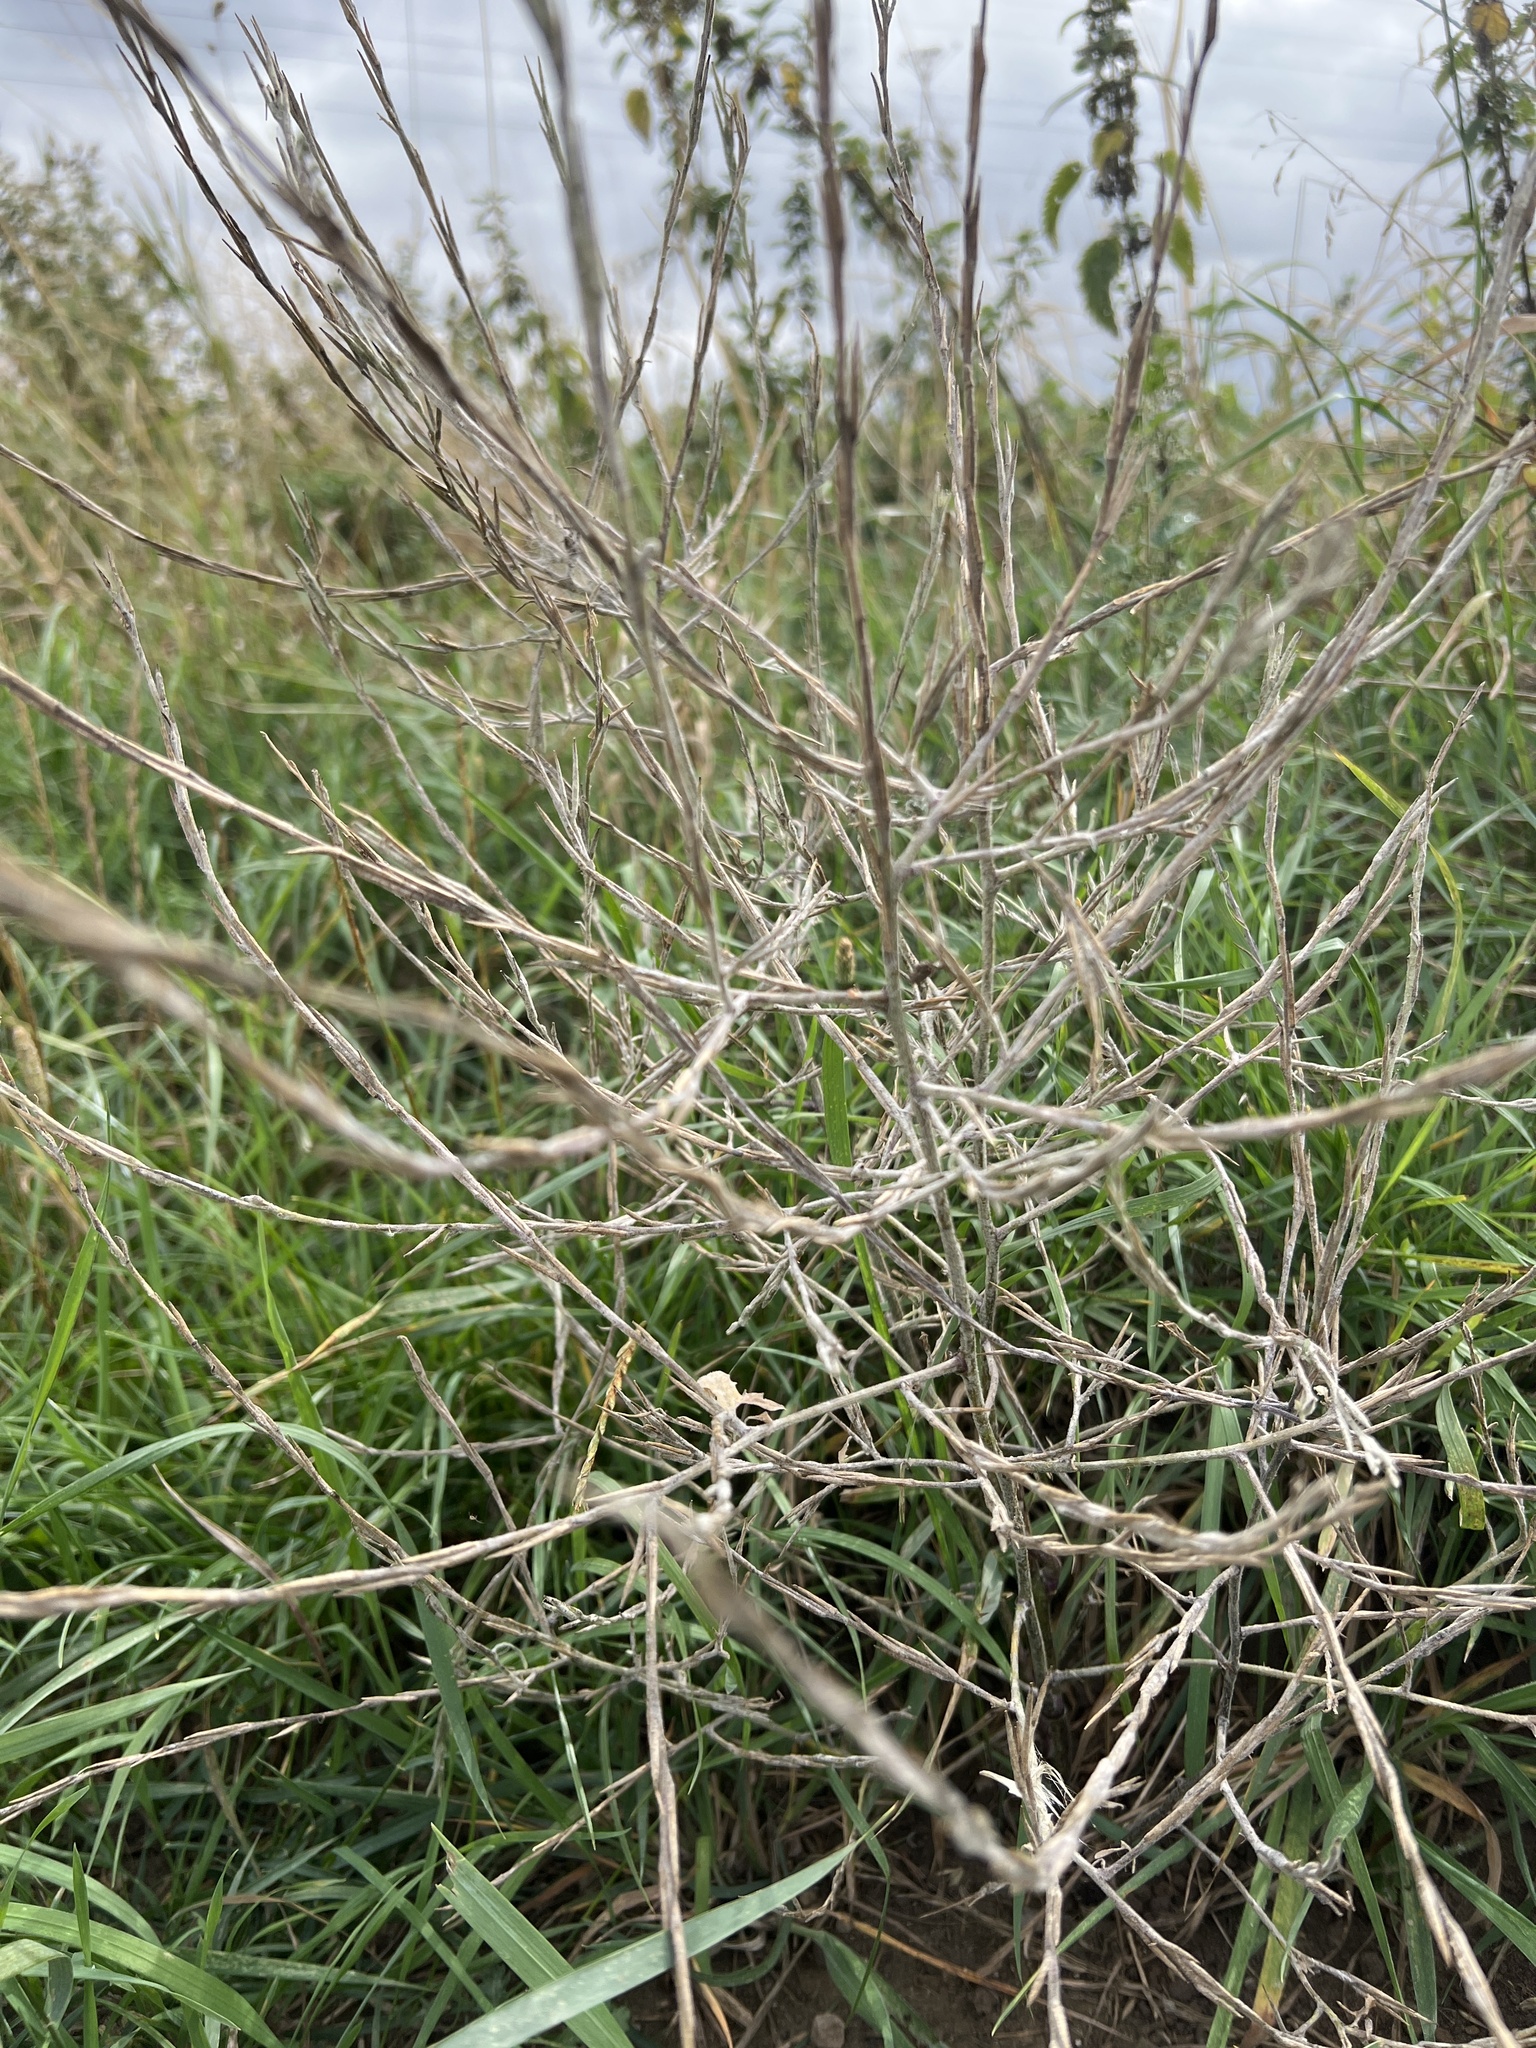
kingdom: Plantae
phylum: Tracheophyta
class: Magnoliopsida
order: Brassicales
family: Brassicaceae
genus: Sisymbrium
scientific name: Sisymbrium officinale
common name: Hedge mustard
